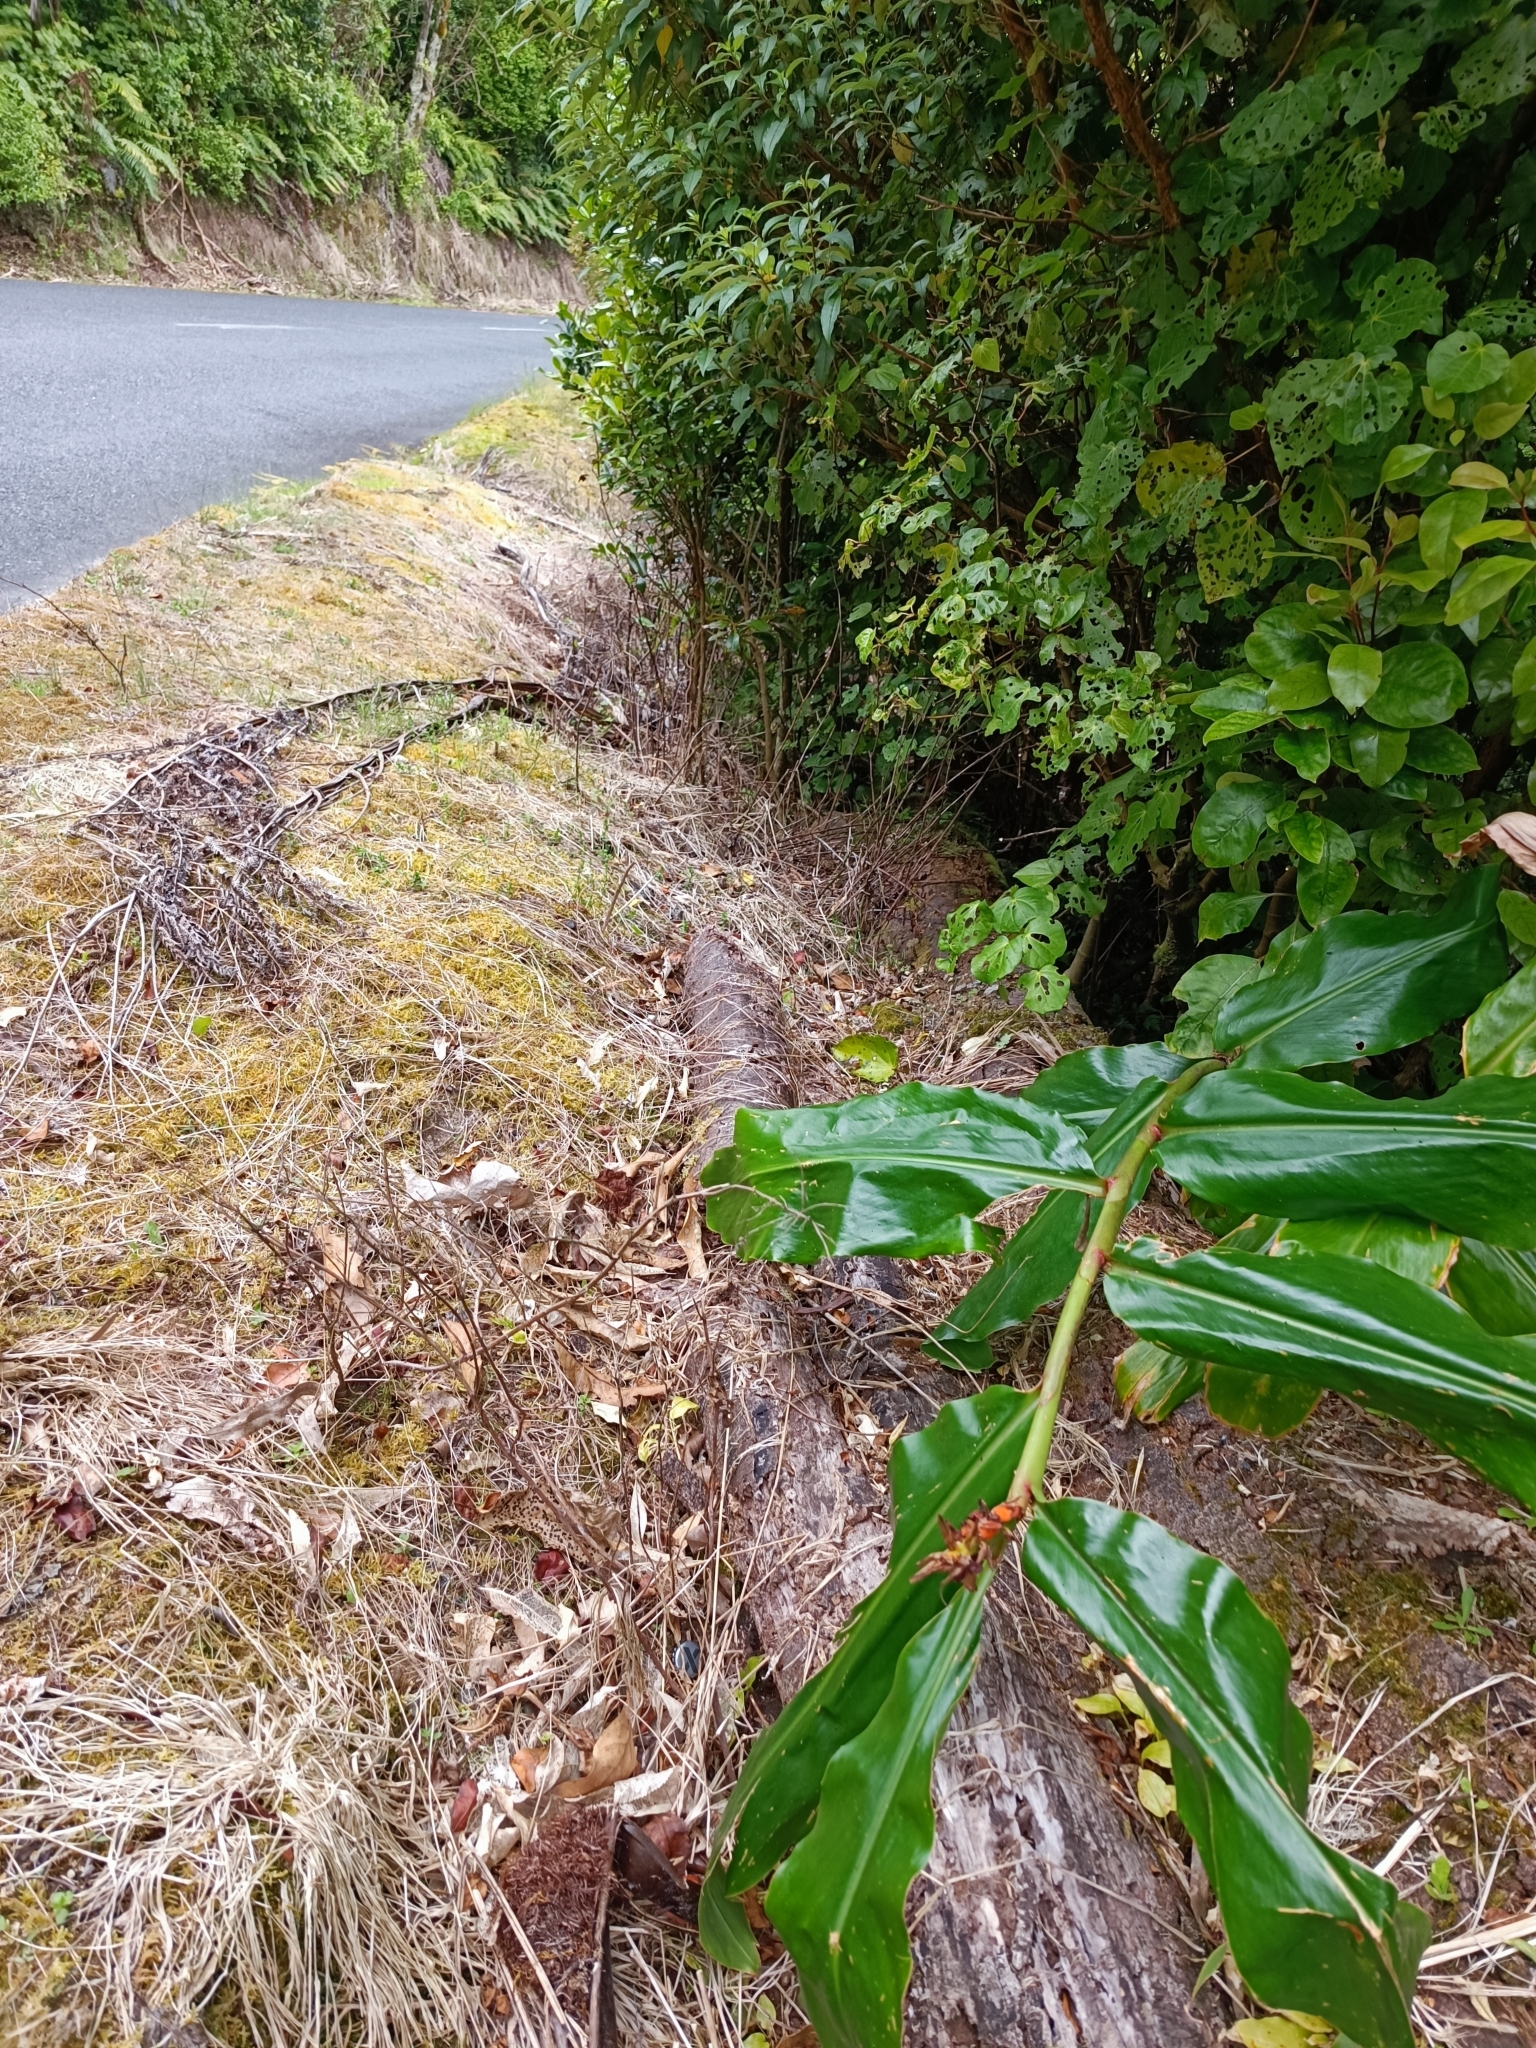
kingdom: Plantae
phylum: Tracheophyta
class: Liliopsida
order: Zingiberales
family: Zingiberaceae
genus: Hedychium
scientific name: Hedychium gardnerianum
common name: Himalayan ginger
